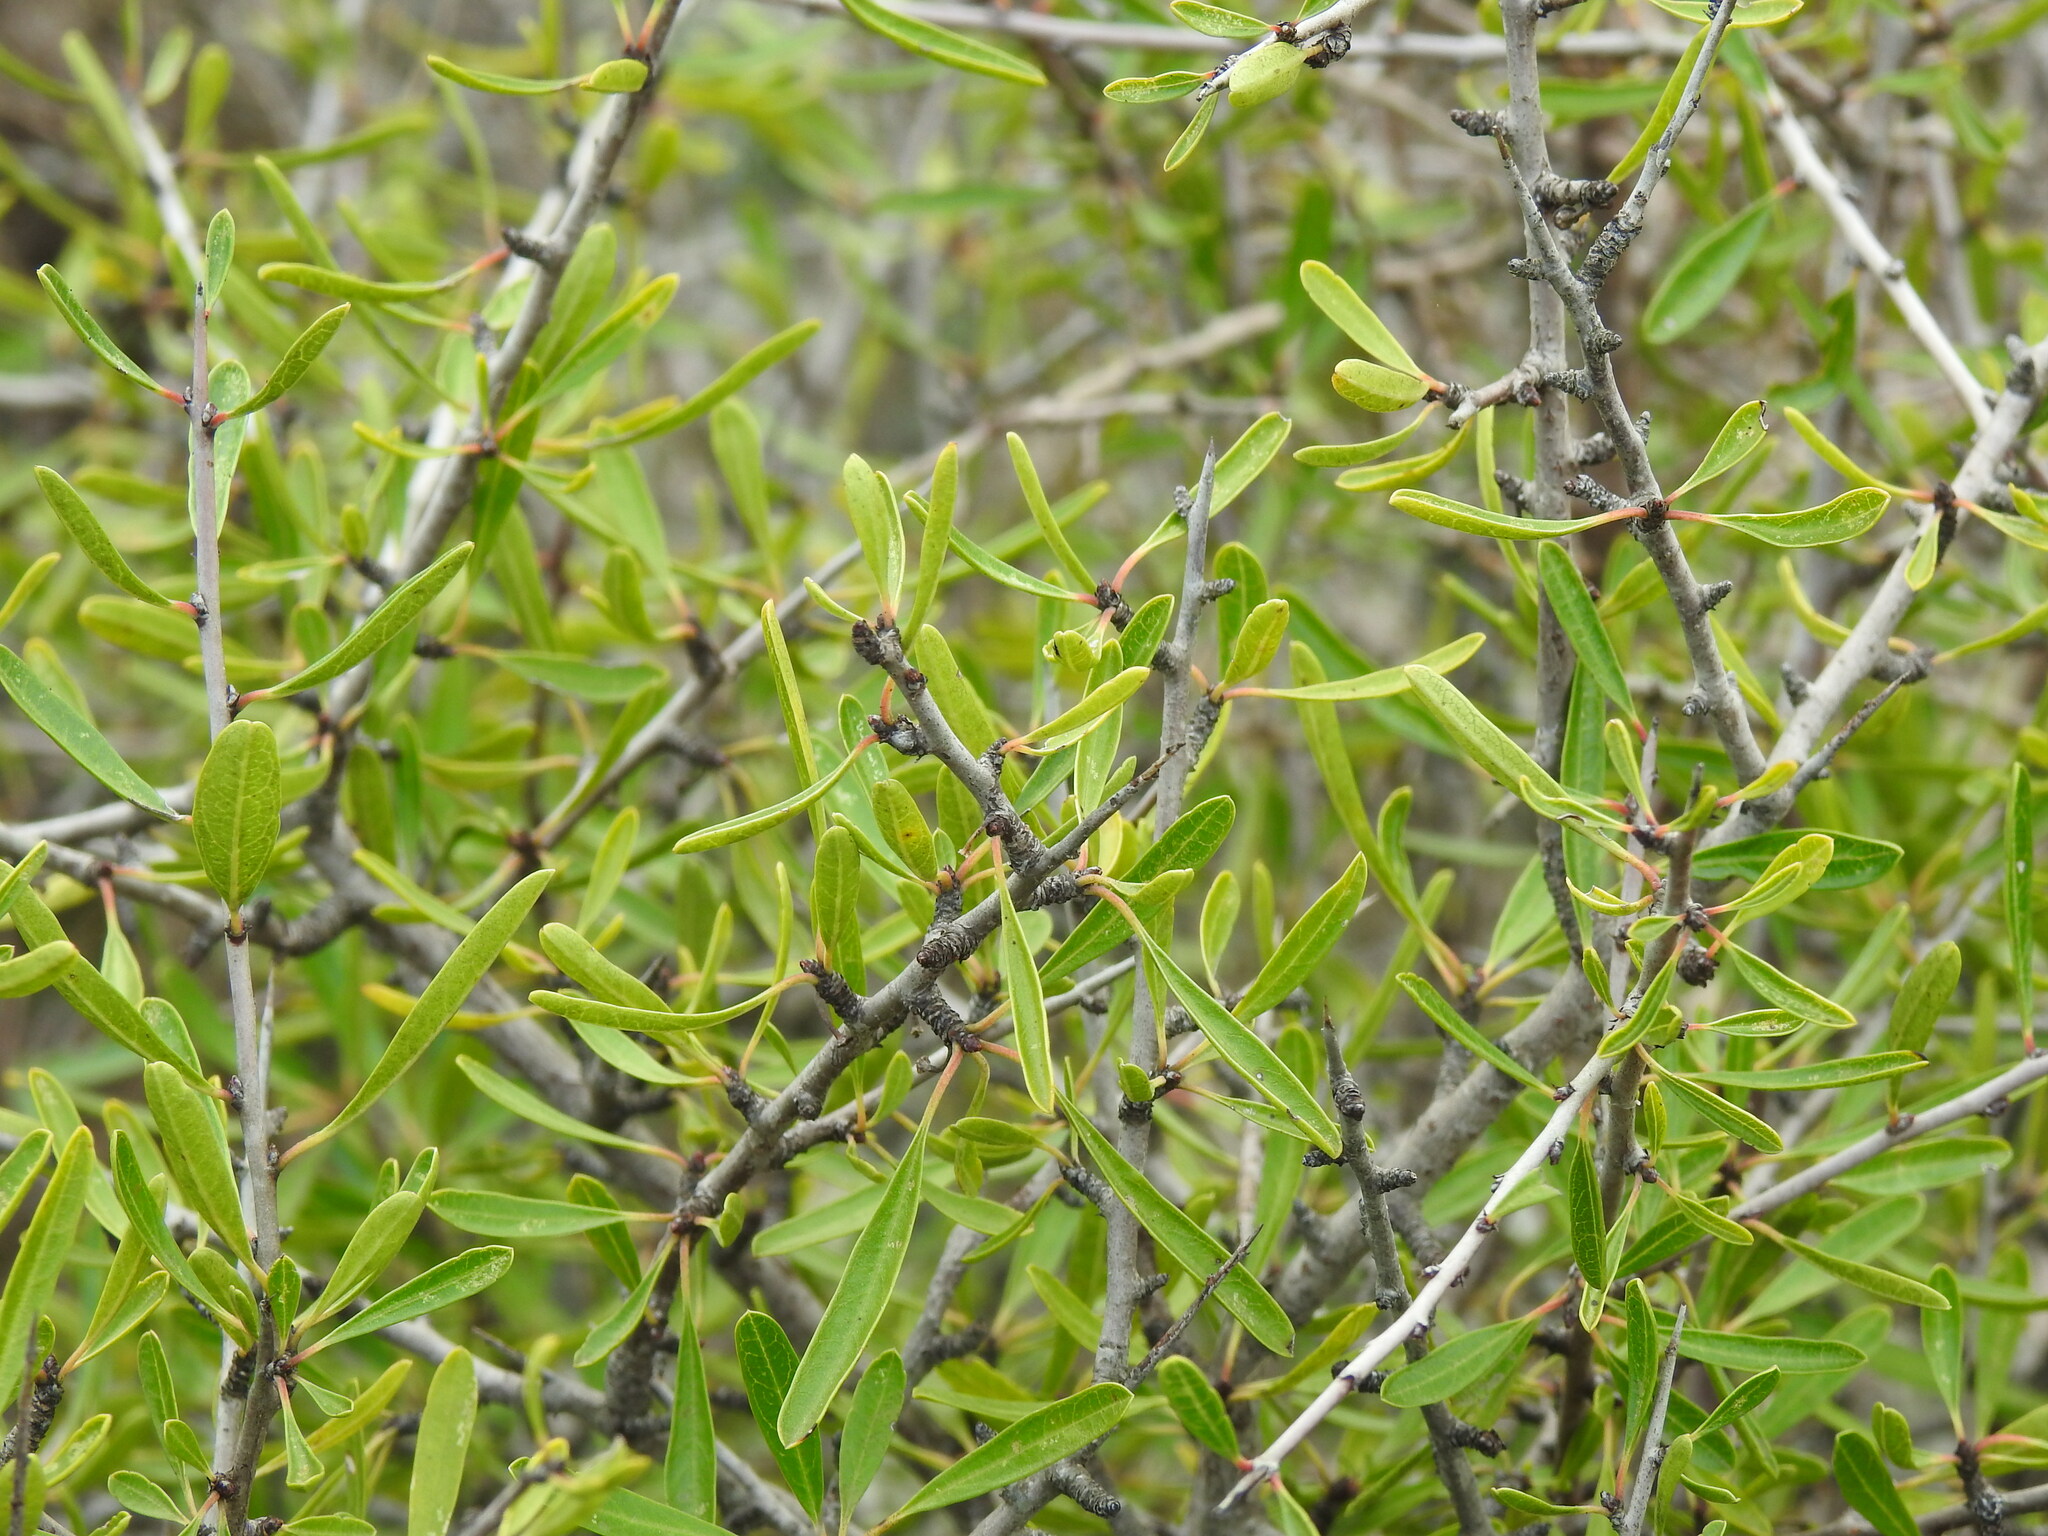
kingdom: Plantae
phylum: Tracheophyta
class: Magnoliopsida
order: Rosales
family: Rhamnaceae
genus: Rhamnus
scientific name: Rhamnus oleoides
